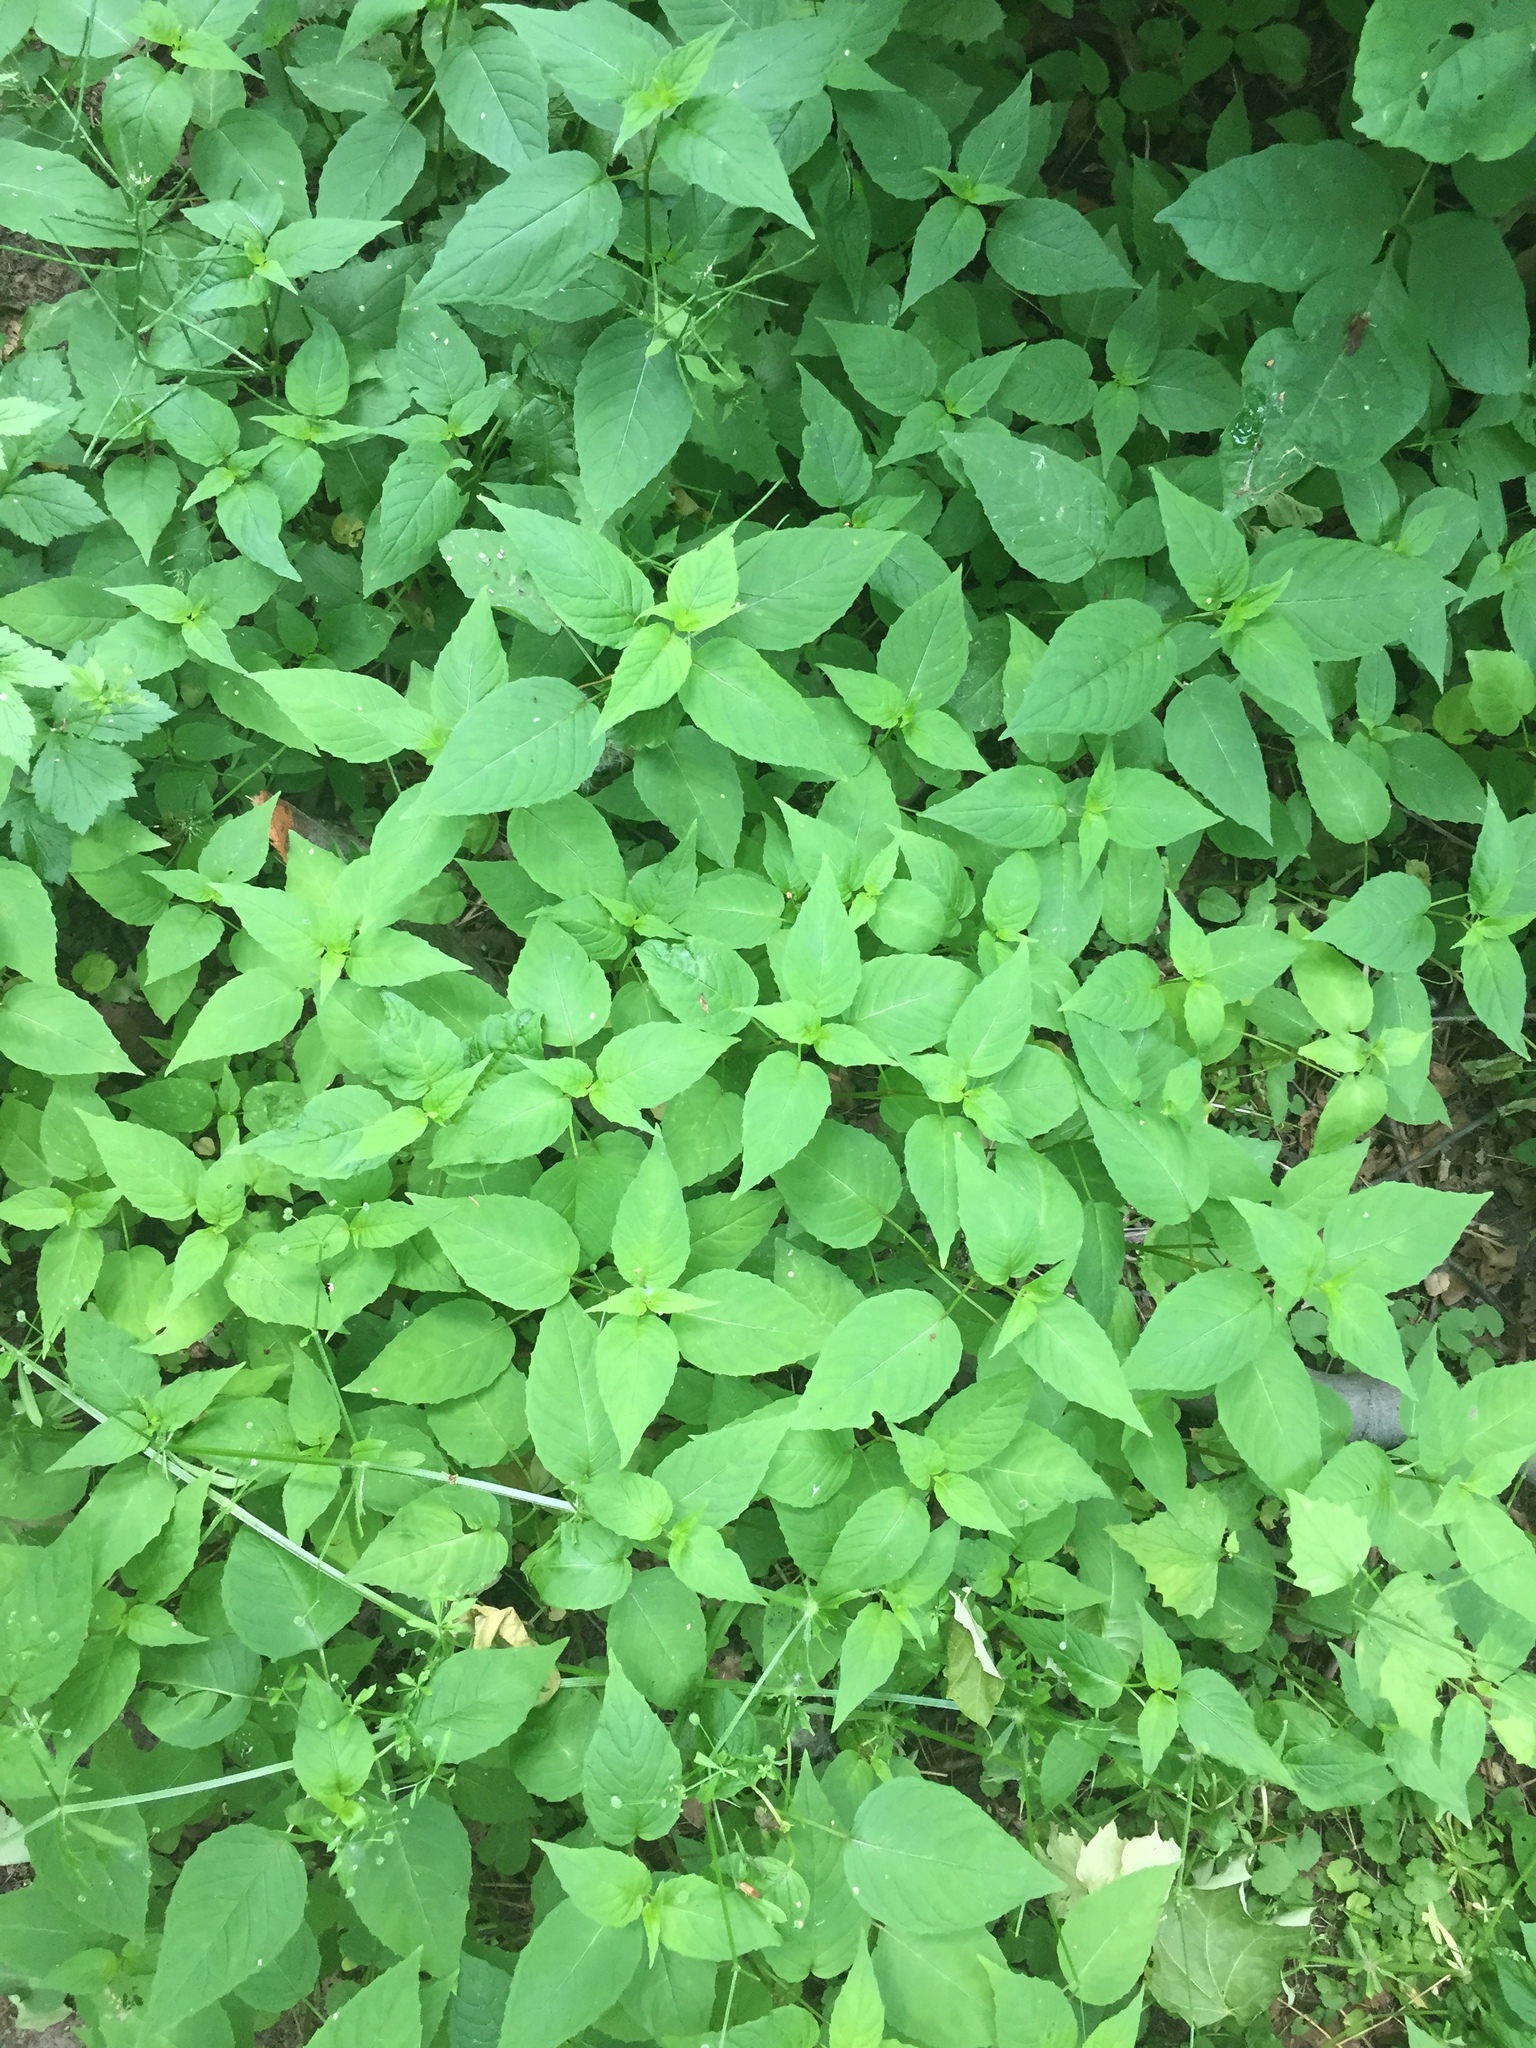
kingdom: Plantae
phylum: Tracheophyta
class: Magnoliopsida
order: Myrtales
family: Onagraceae
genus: Circaea
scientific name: Circaea canadensis
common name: Broad-leaved enchanter's nightshade
